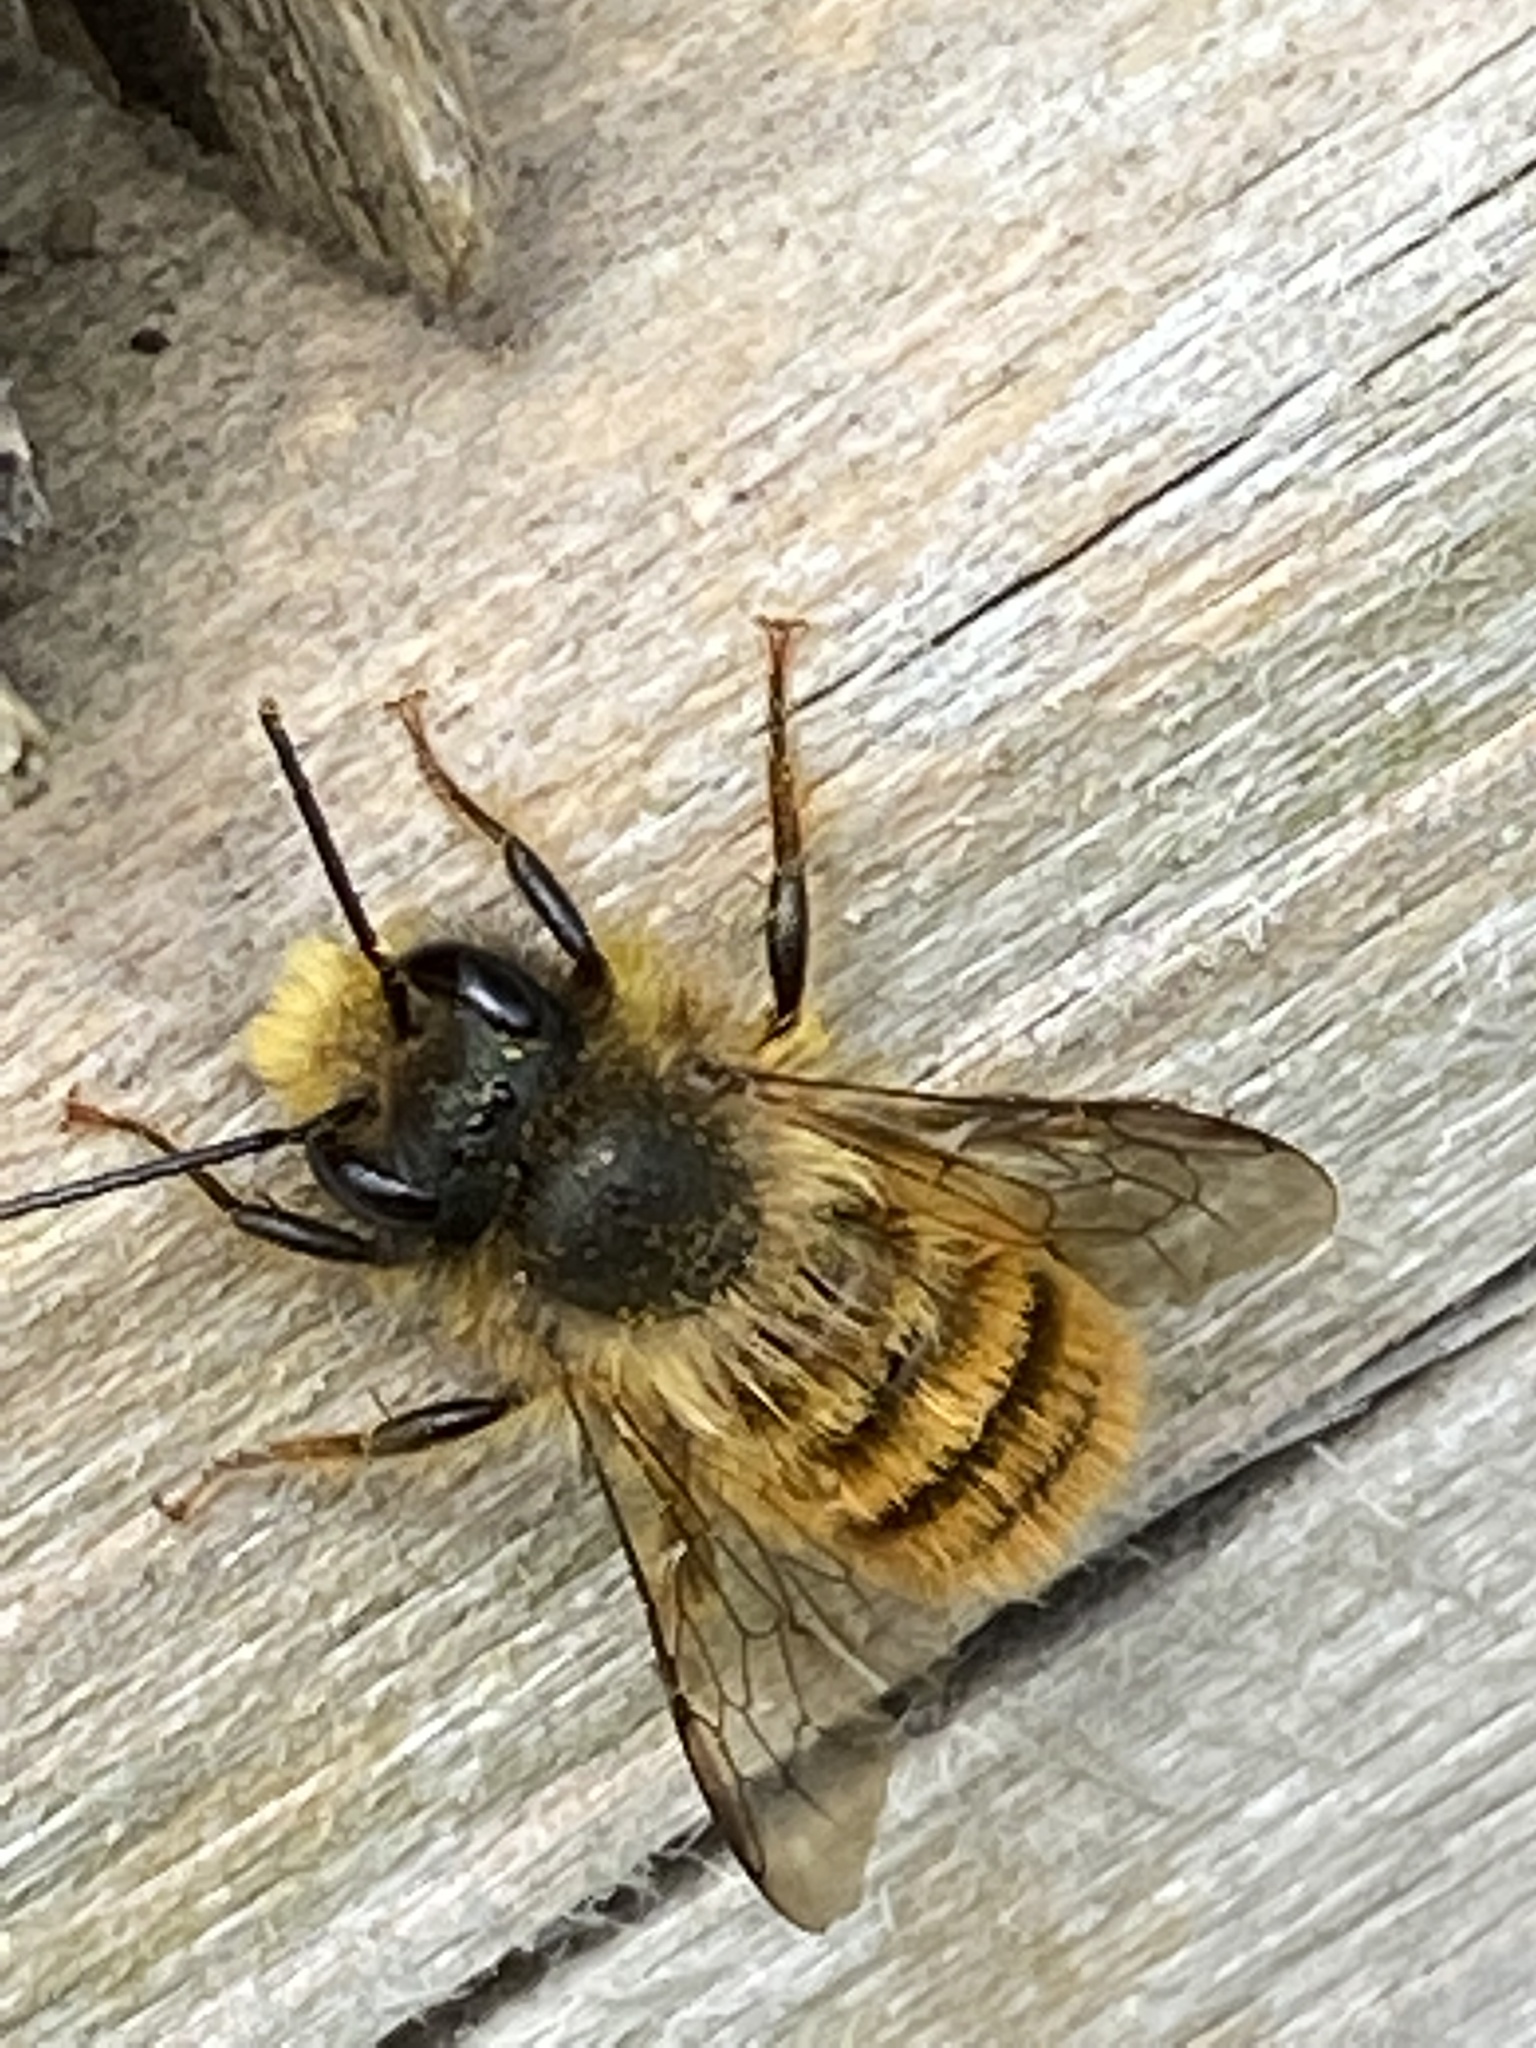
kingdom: Animalia
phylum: Arthropoda
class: Insecta
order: Hymenoptera
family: Megachilidae
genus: Osmia
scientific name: Osmia bicornis
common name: Red mason bee
